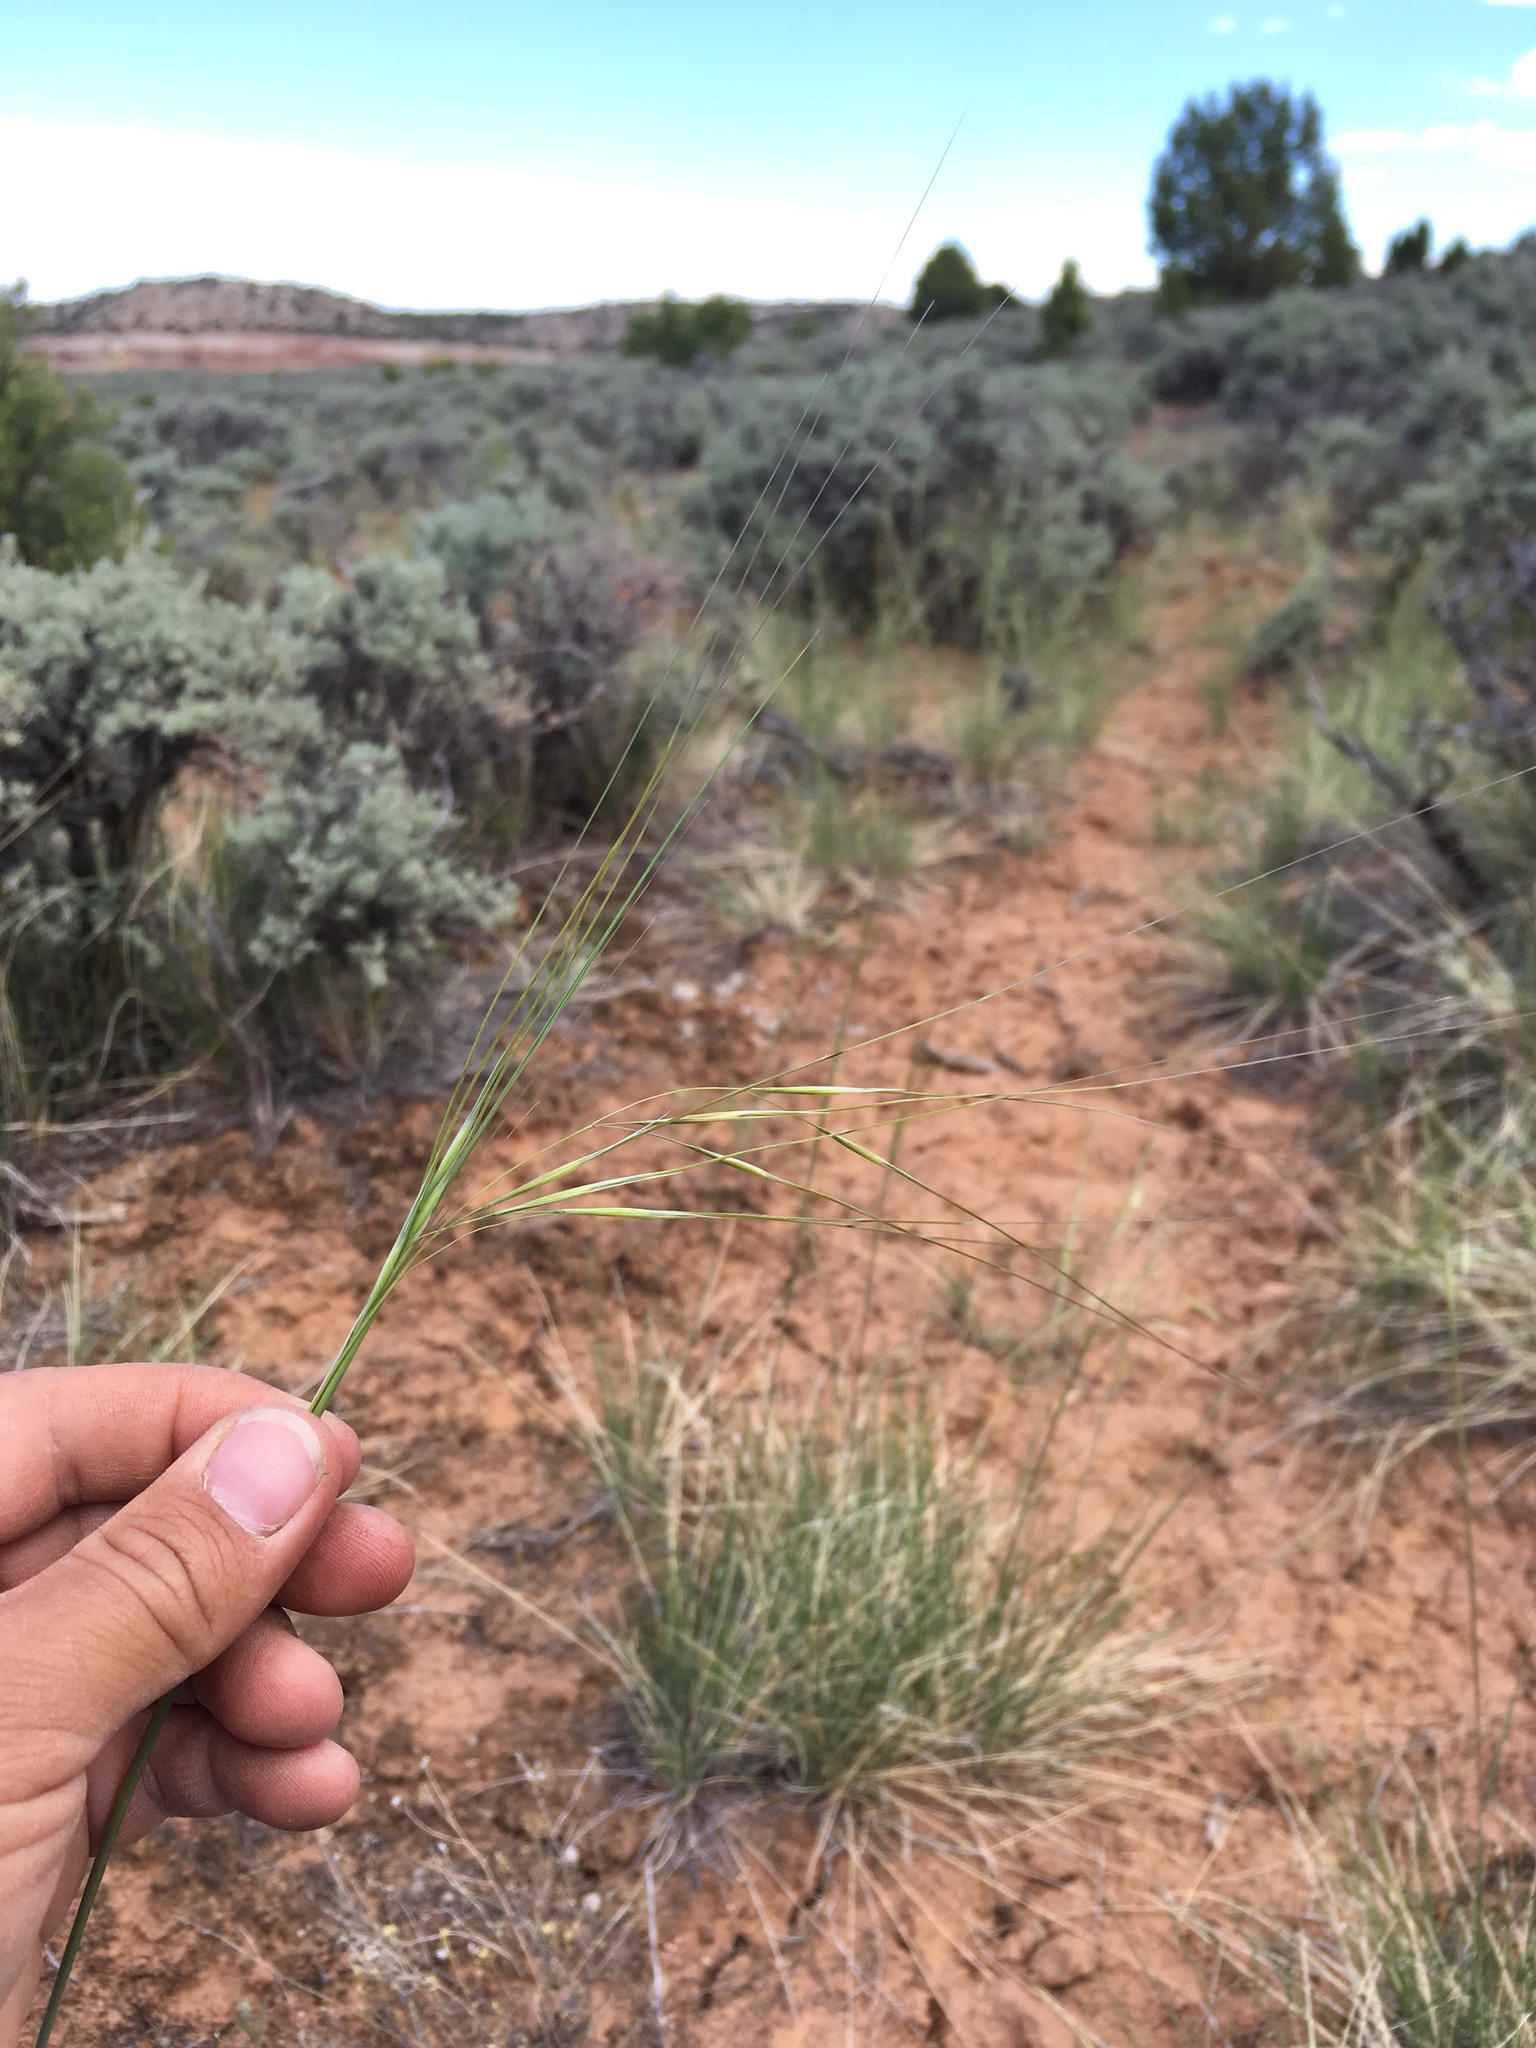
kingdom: Plantae
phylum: Tracheophyta
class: Liliopsida
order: Poales
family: Poaceae
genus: Hesperostipa
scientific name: Hesperostipa comata
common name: Needle-and-thread grass
